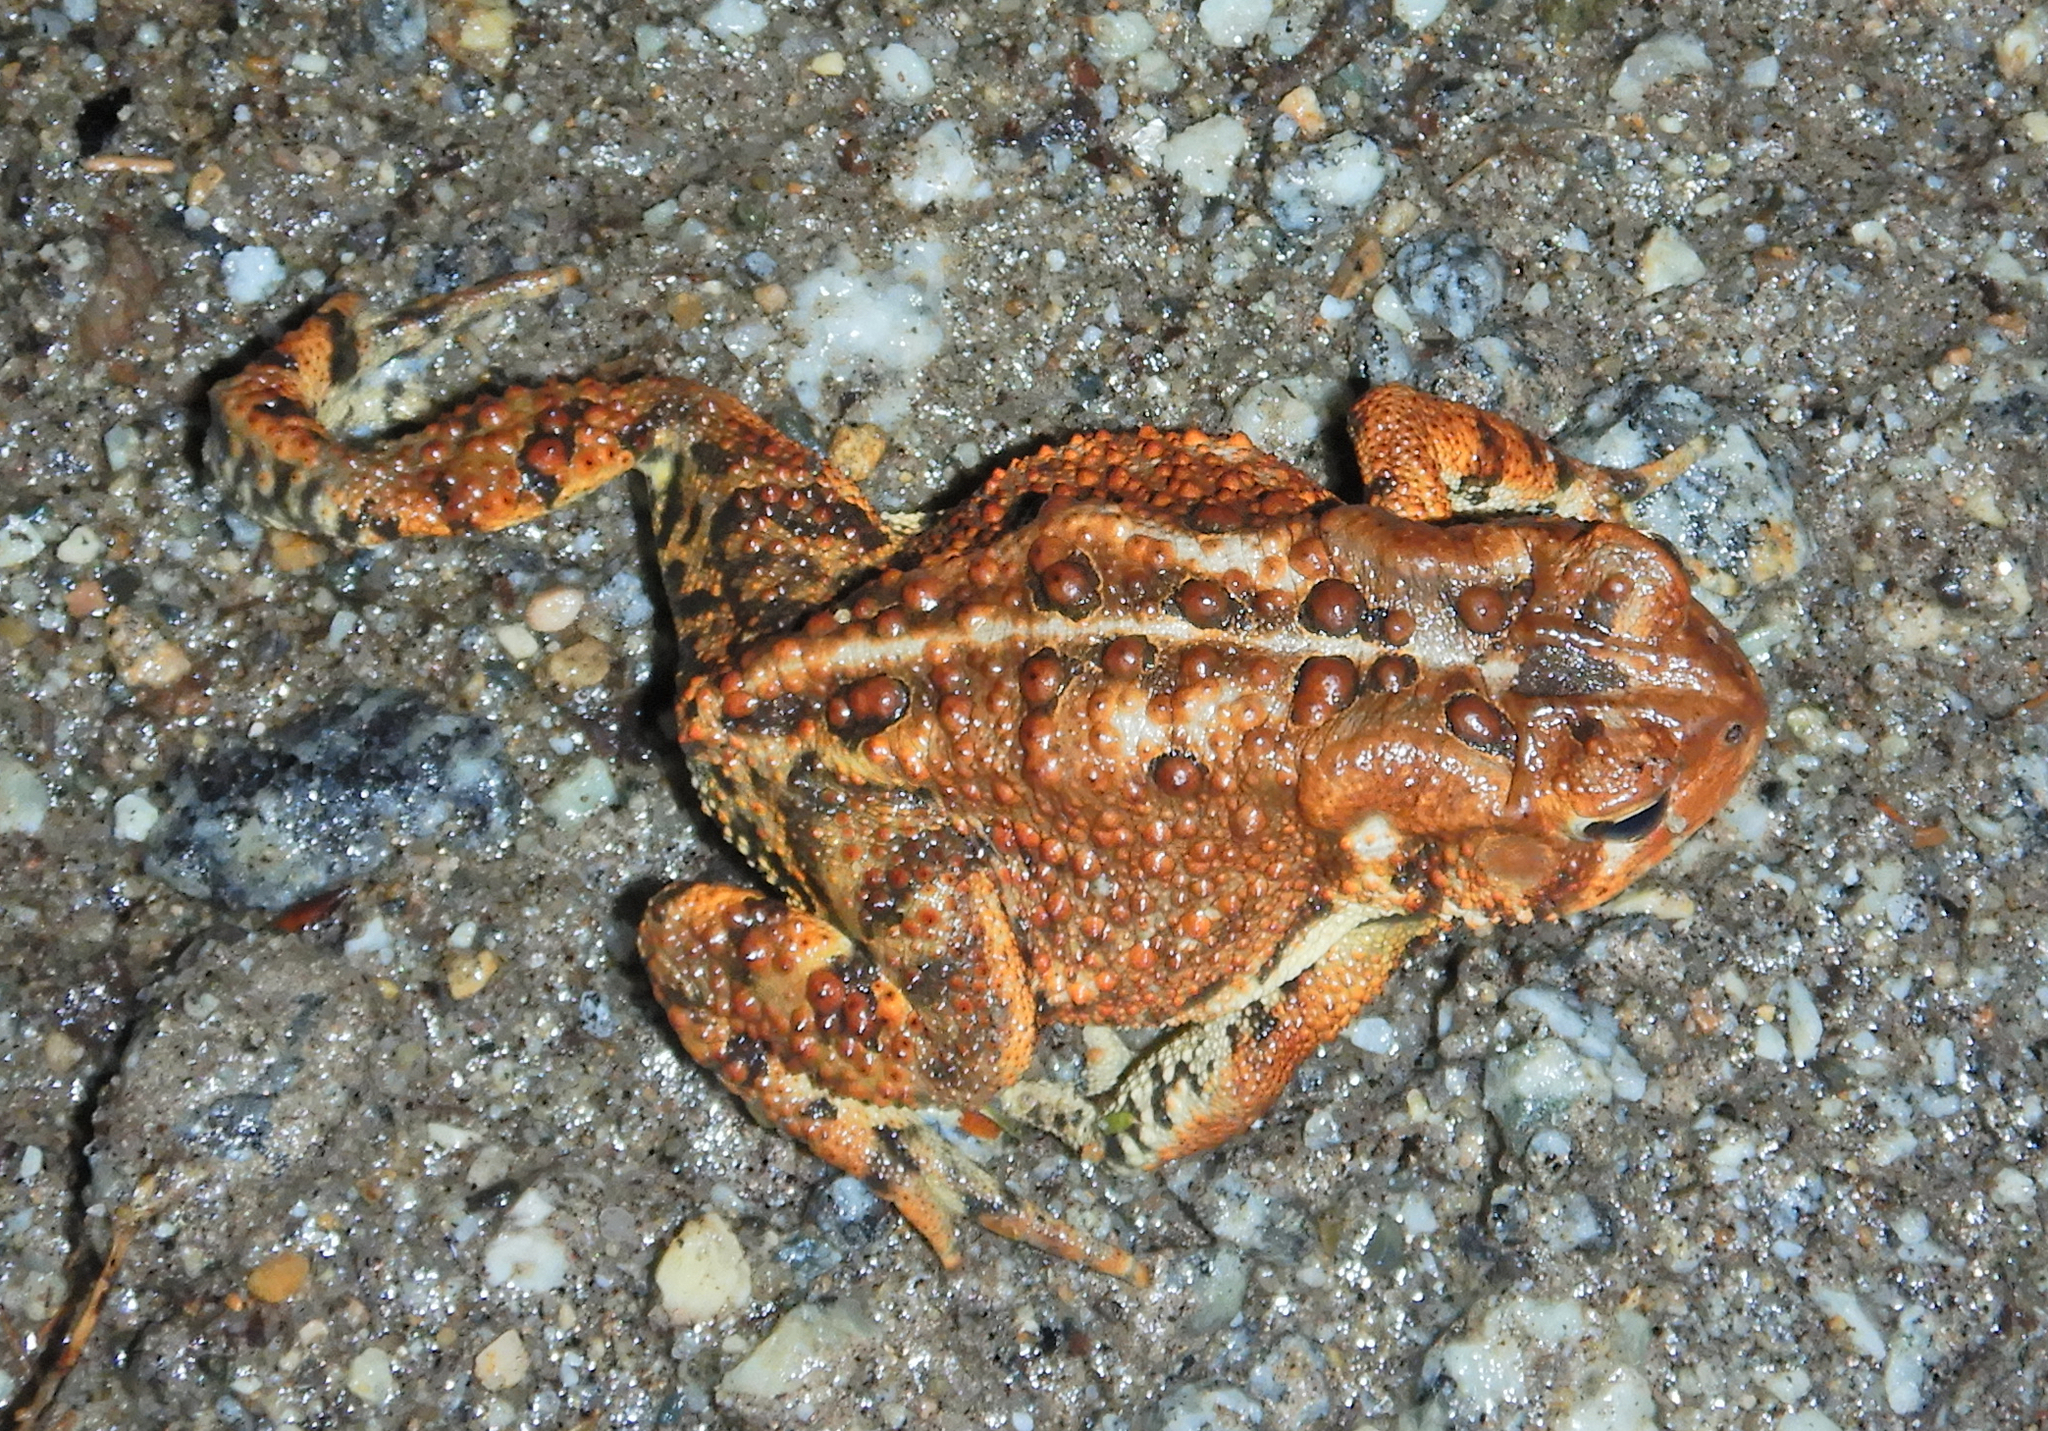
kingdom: Animalia
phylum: Chordata
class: Amphibia
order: Anura
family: Bufonidae
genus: Anaxyrus
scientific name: Anaxyrus americanus
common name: American toad
